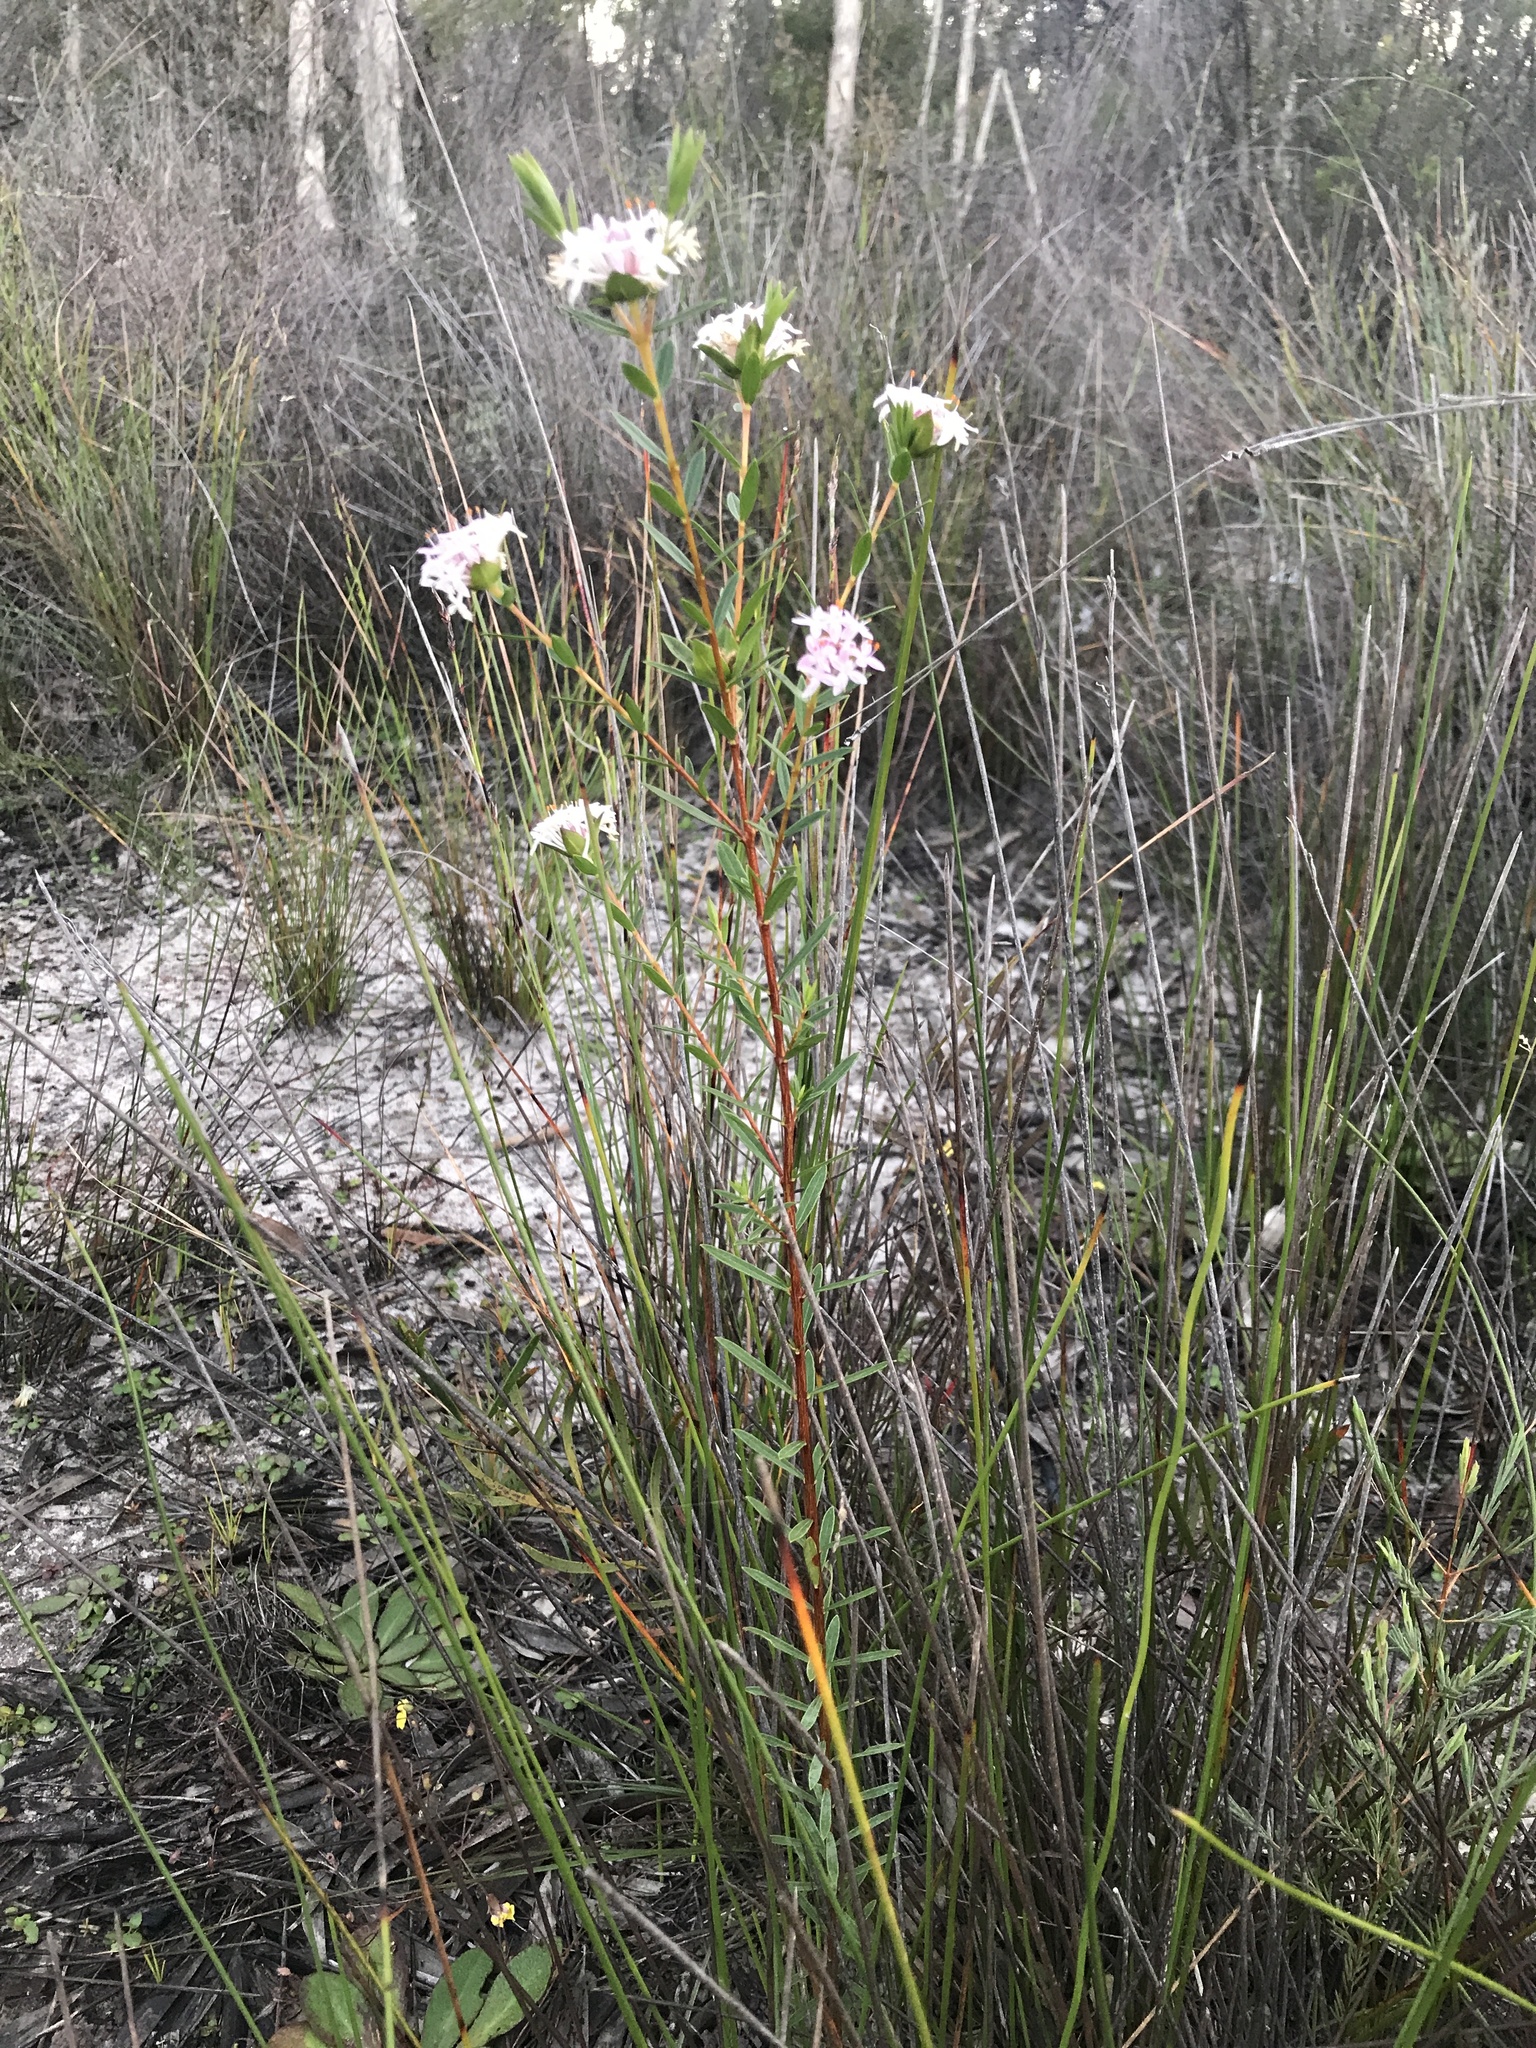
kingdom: Plantae
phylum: Tracheophyta
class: Magnoliopsida
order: Malvales
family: Thymelaeaceae
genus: Pimelea
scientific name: Pimelea linifolia
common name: Queen-of-the-bush
